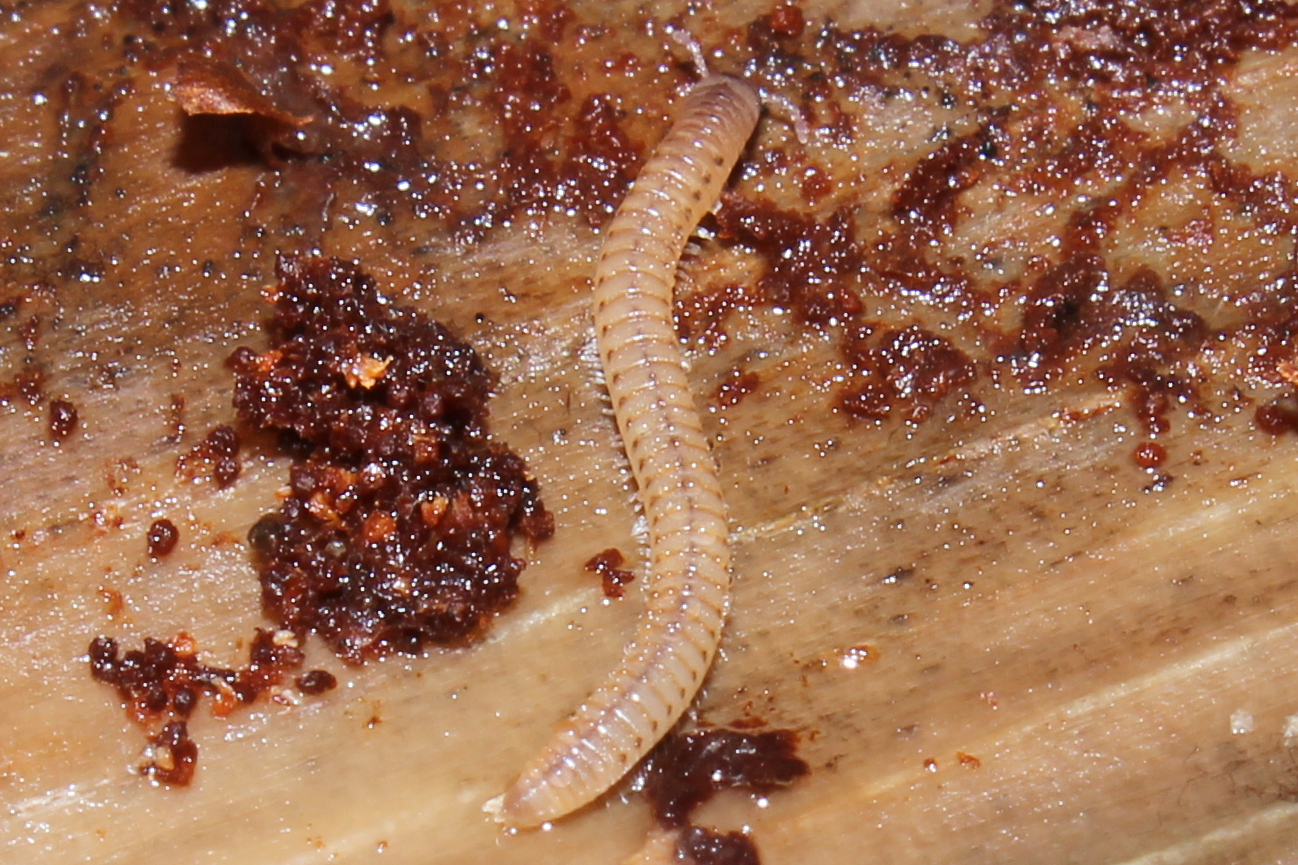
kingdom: Animalia
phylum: Arthropoda
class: Diplopoda
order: Julida
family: Julidae
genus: Cylindroiulus
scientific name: Cylindroiulus punctatus
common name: Blunt-tailed millipede
